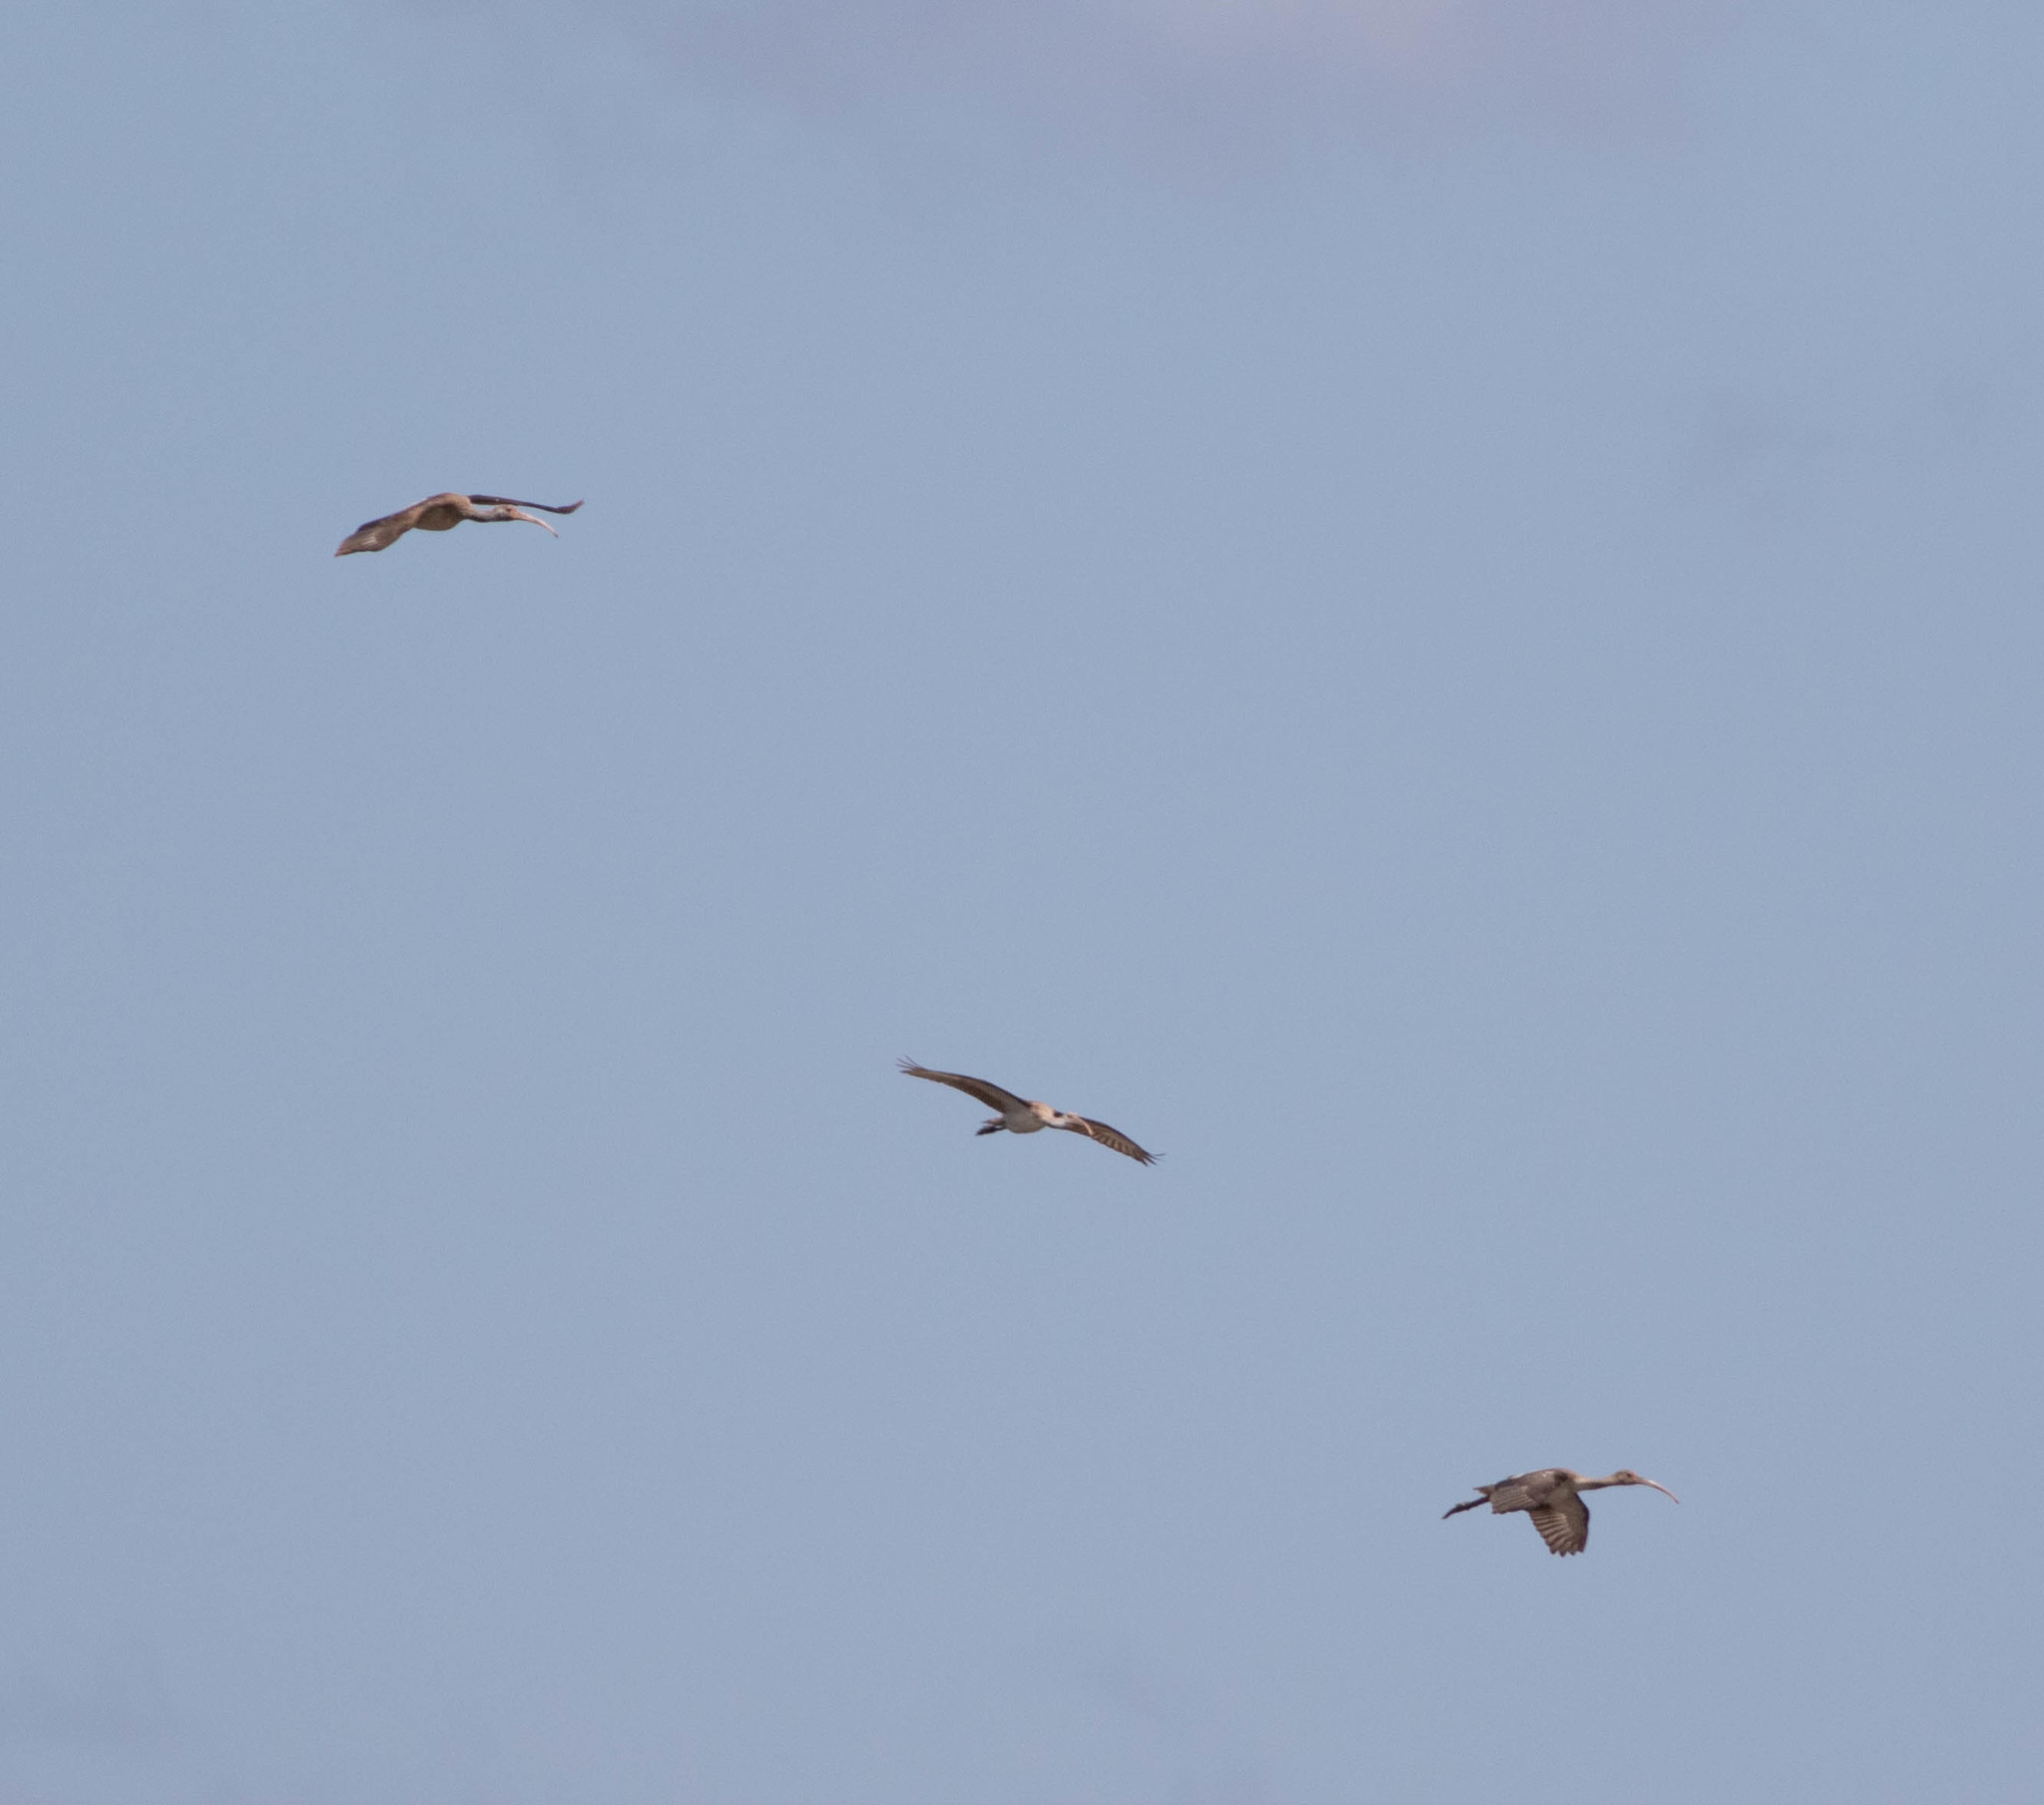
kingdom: Animalia
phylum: Chordata
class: Aves
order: Pelecaniformes
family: Threskiornithidae
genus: Eudocimus
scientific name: Eudocimus albus
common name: White ibis
